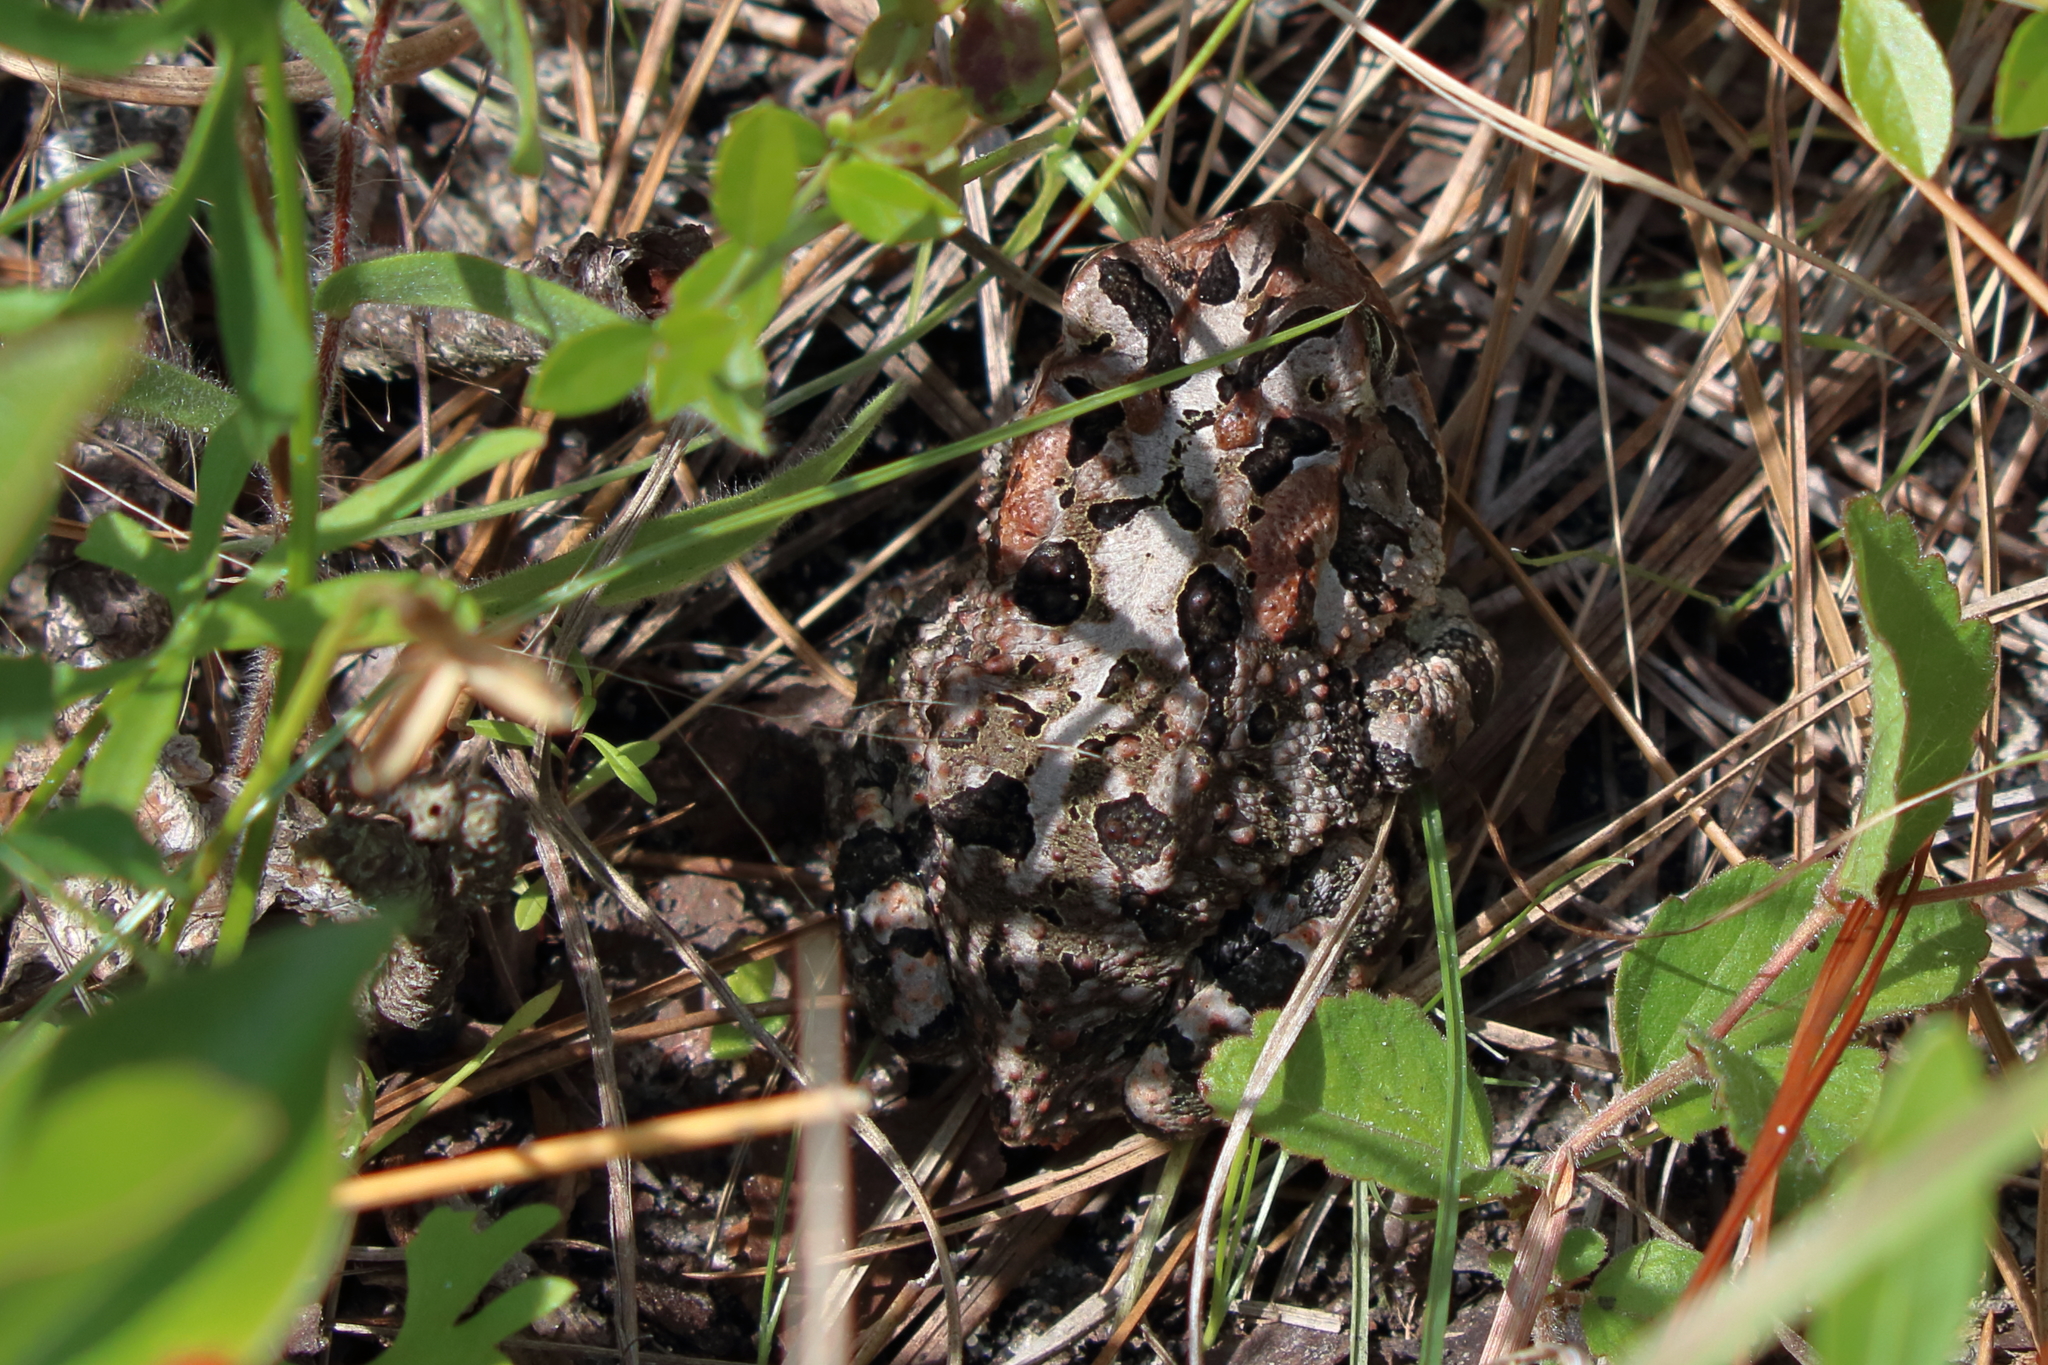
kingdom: Animalia
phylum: Chordata
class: Amphibia
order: Anura
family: Bufonidae
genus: Anaxyrus
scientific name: Anaxyrus terrestris
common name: Southern toad
